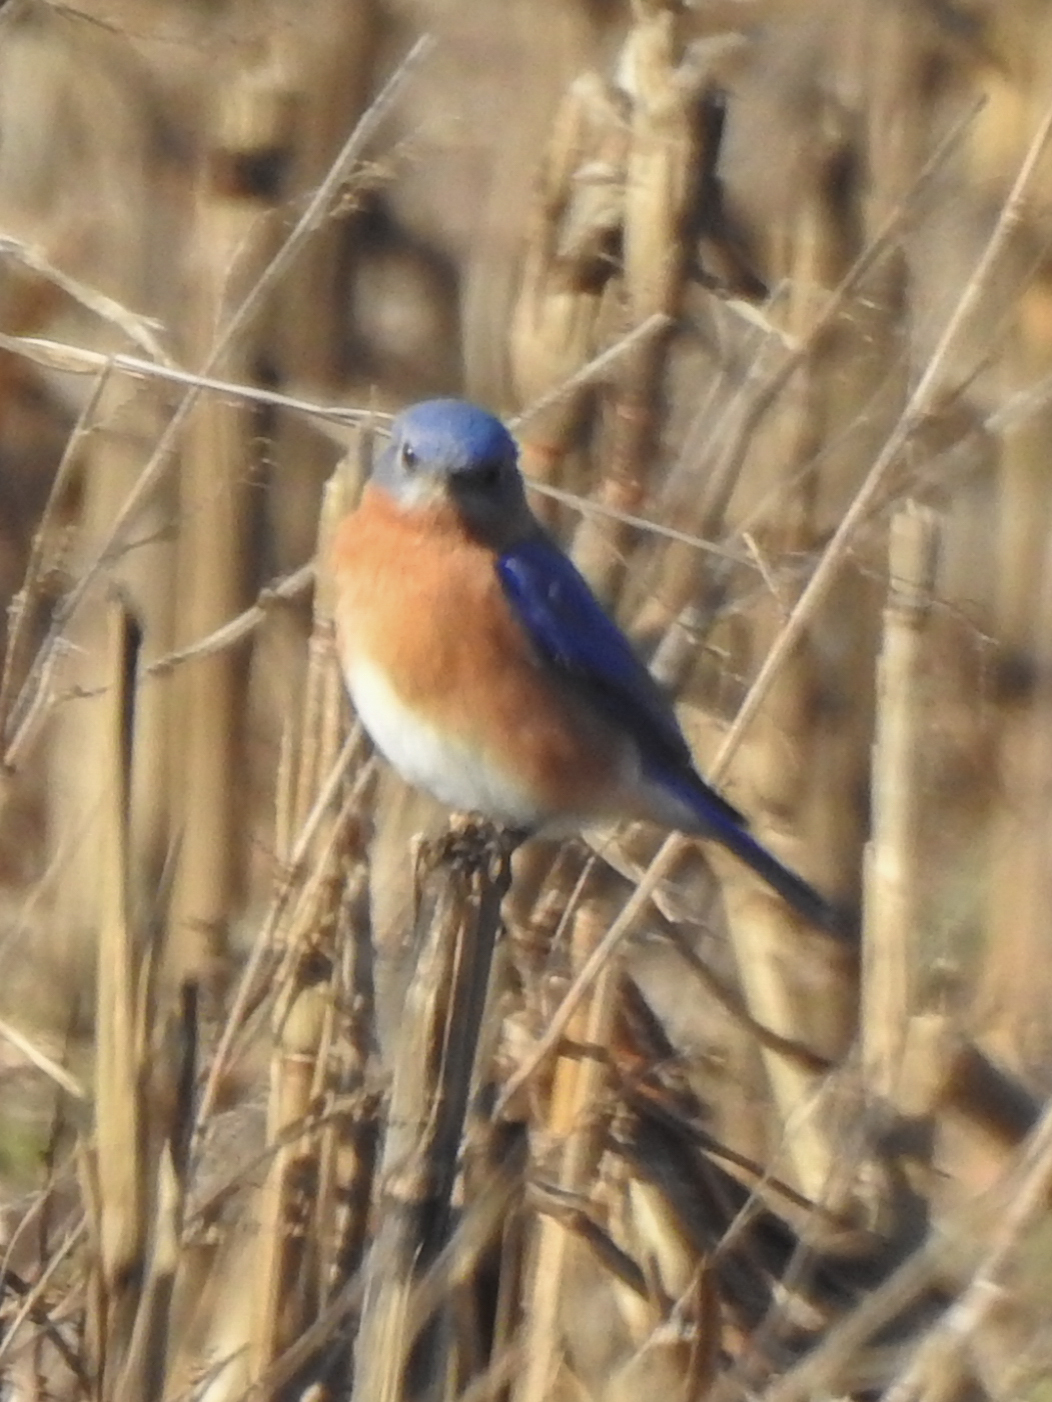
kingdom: Animalia
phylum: Chordata
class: Aves
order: Passeriformes
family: Turdidae
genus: Sialia
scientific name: Sialia sialis
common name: Eastern bluebird
